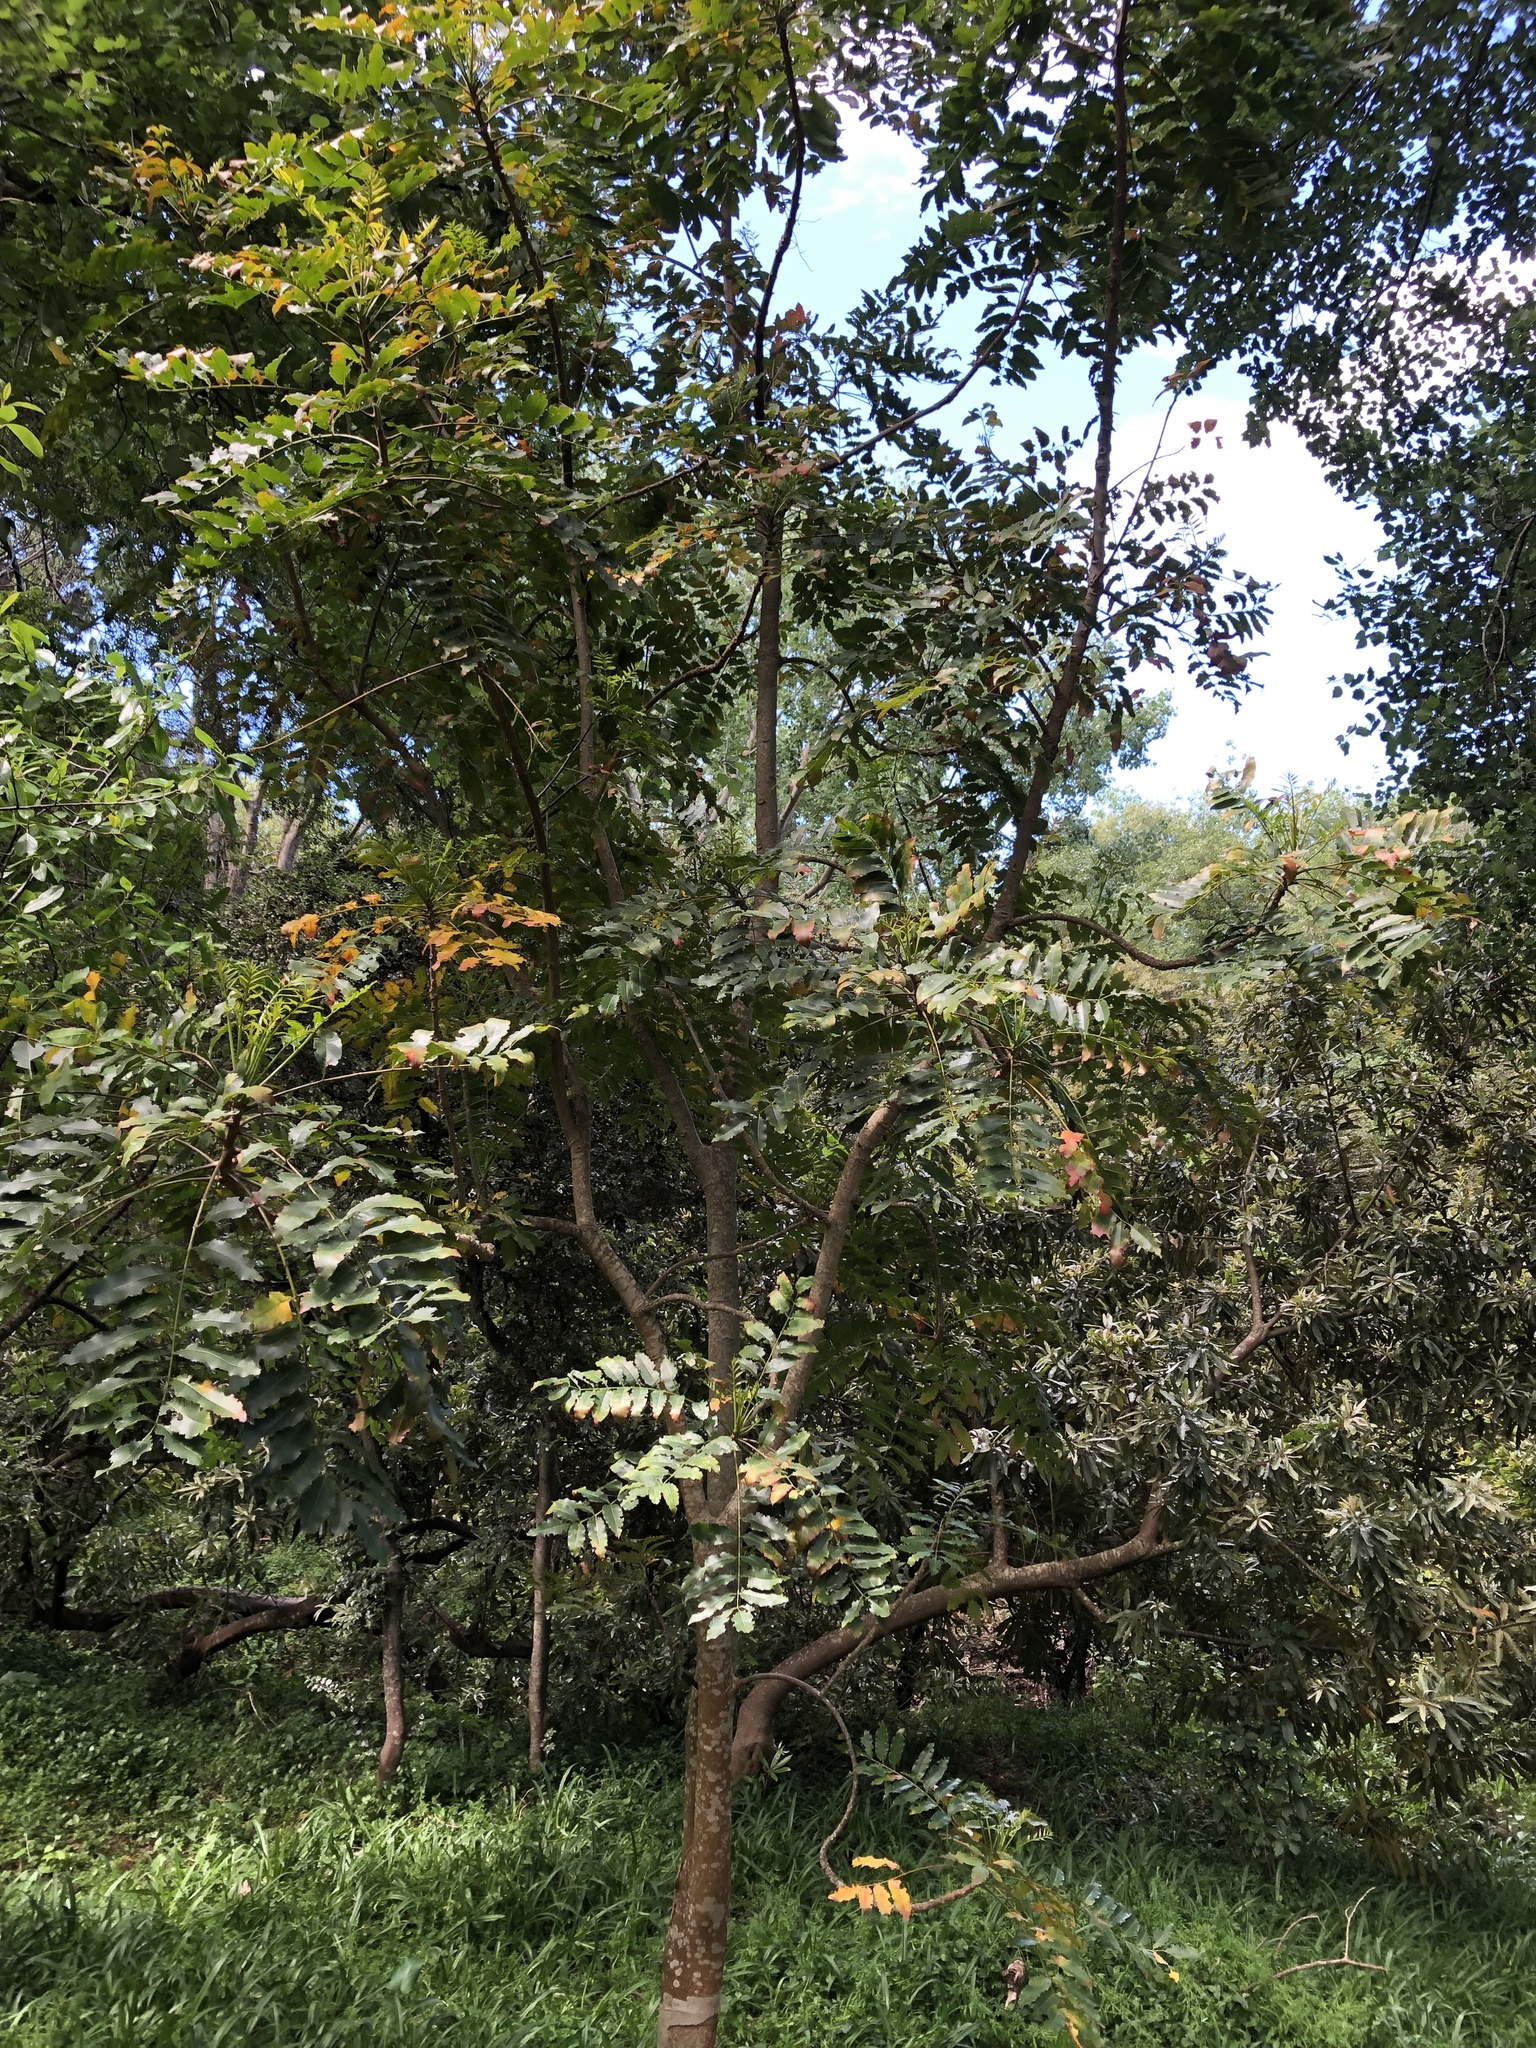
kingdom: Plantae
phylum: Tracheophyta
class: Magnoliopsida
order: Sapindales
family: Meliaceae
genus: Ekebergia
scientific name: Ekebergia capensis
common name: Cape-ash
